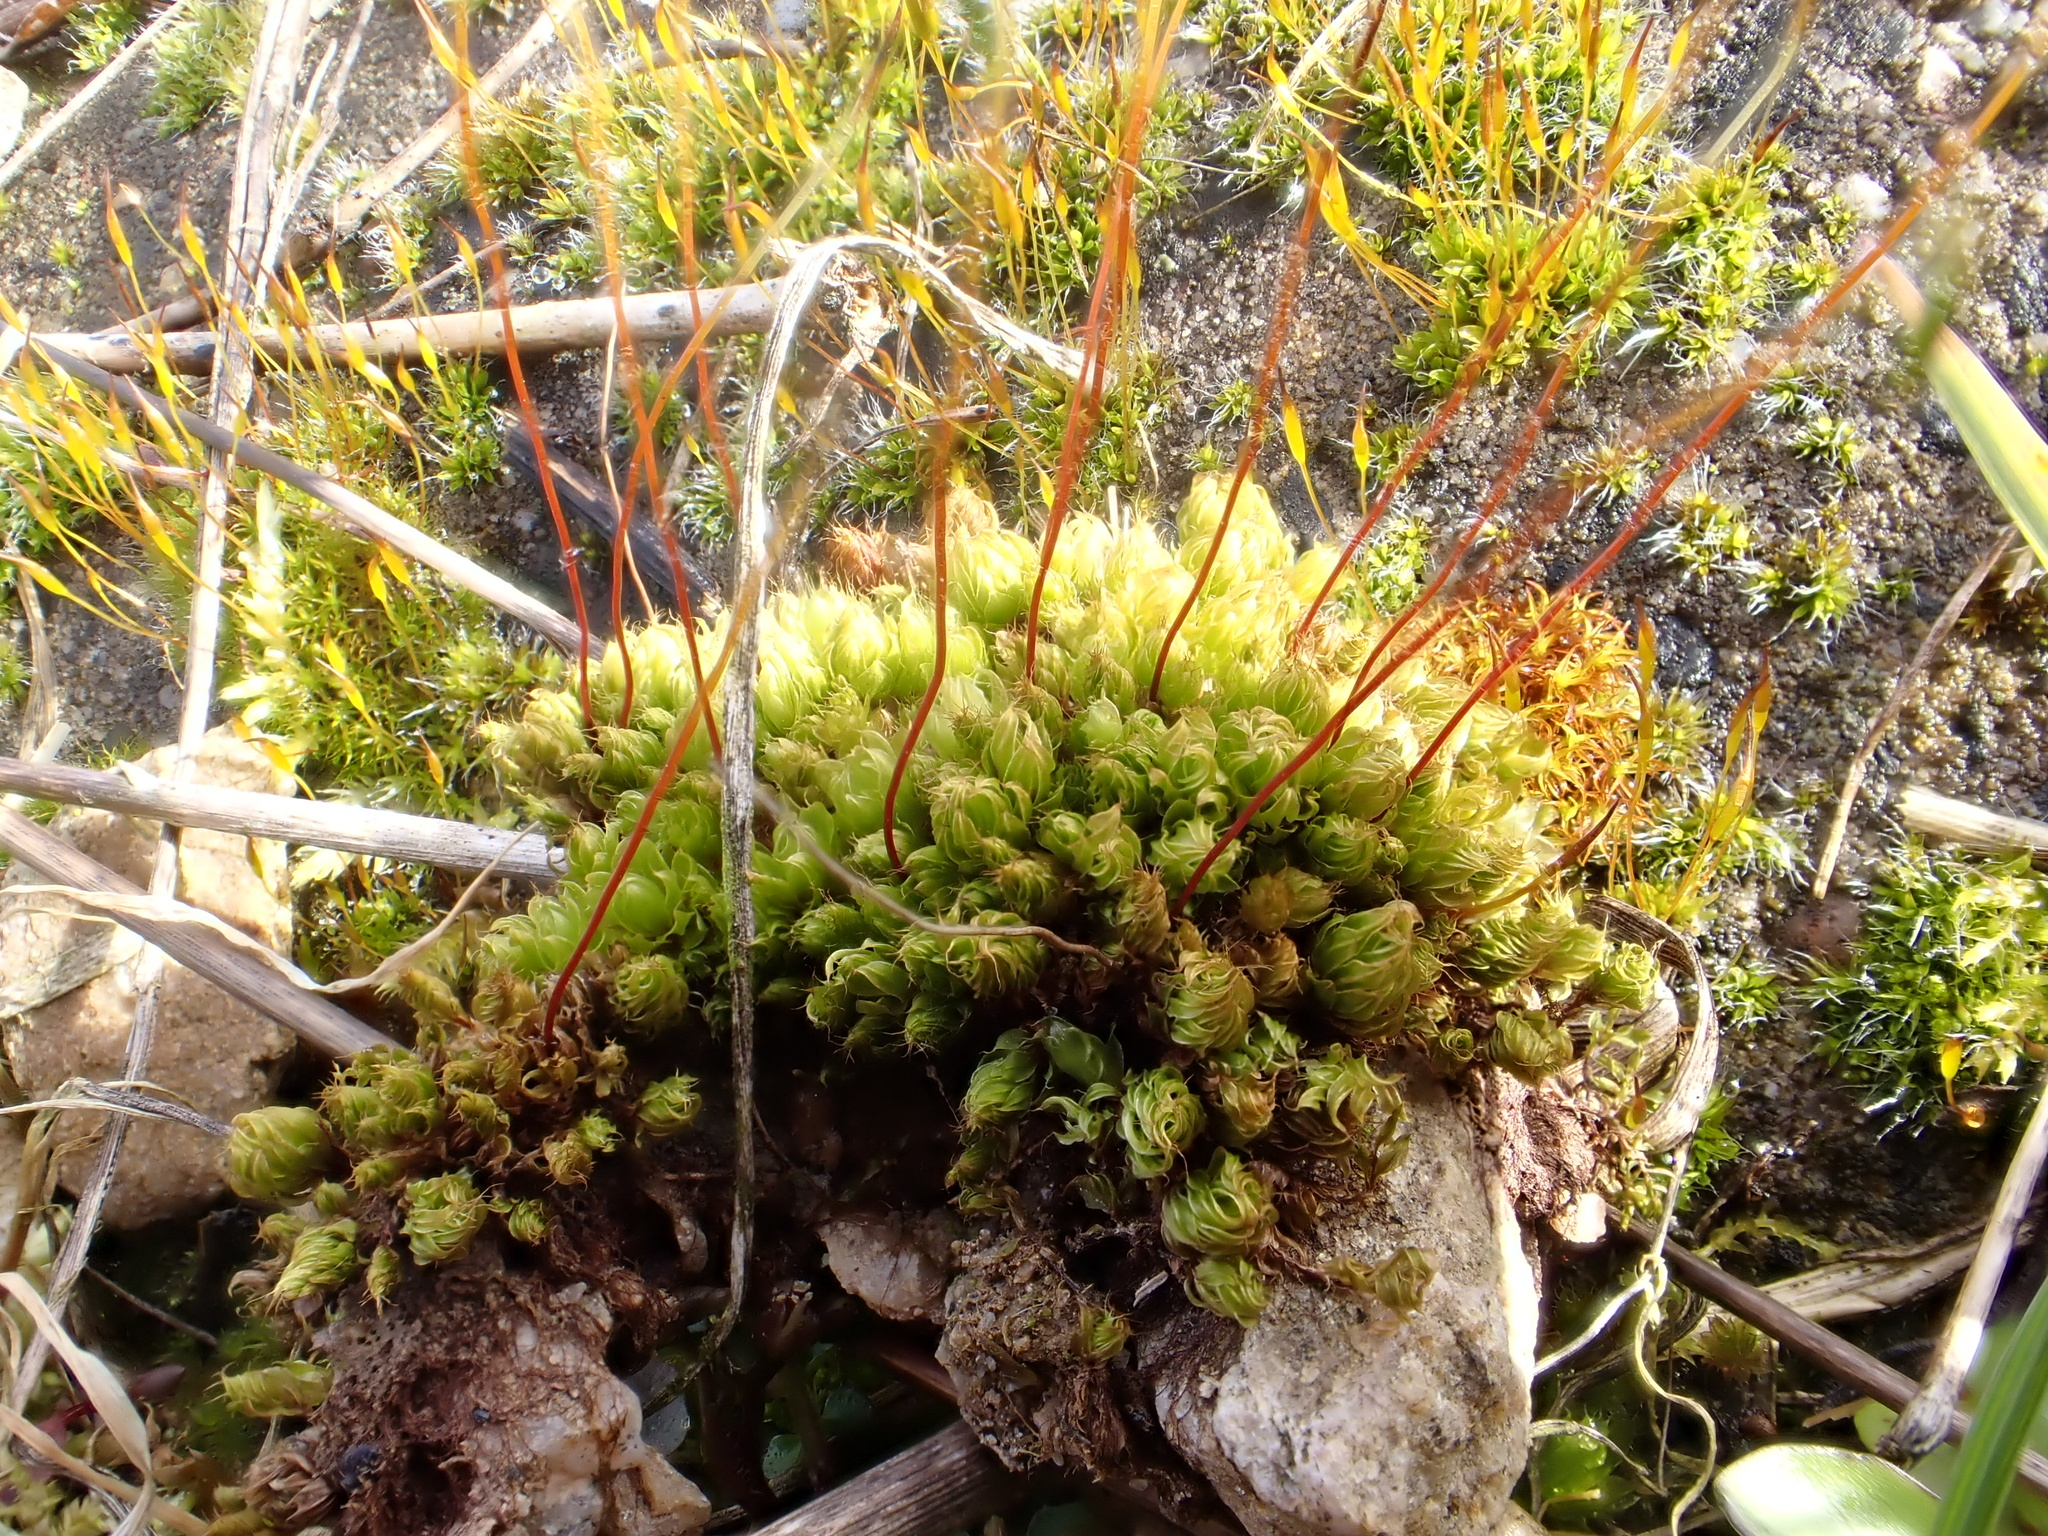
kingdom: Plantae
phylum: Bryophyta
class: Bryopsida
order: Bryales
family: Bryaceae
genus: Rosulabryum
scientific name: Rosulabryum capillare
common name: Capillary thread-moss
